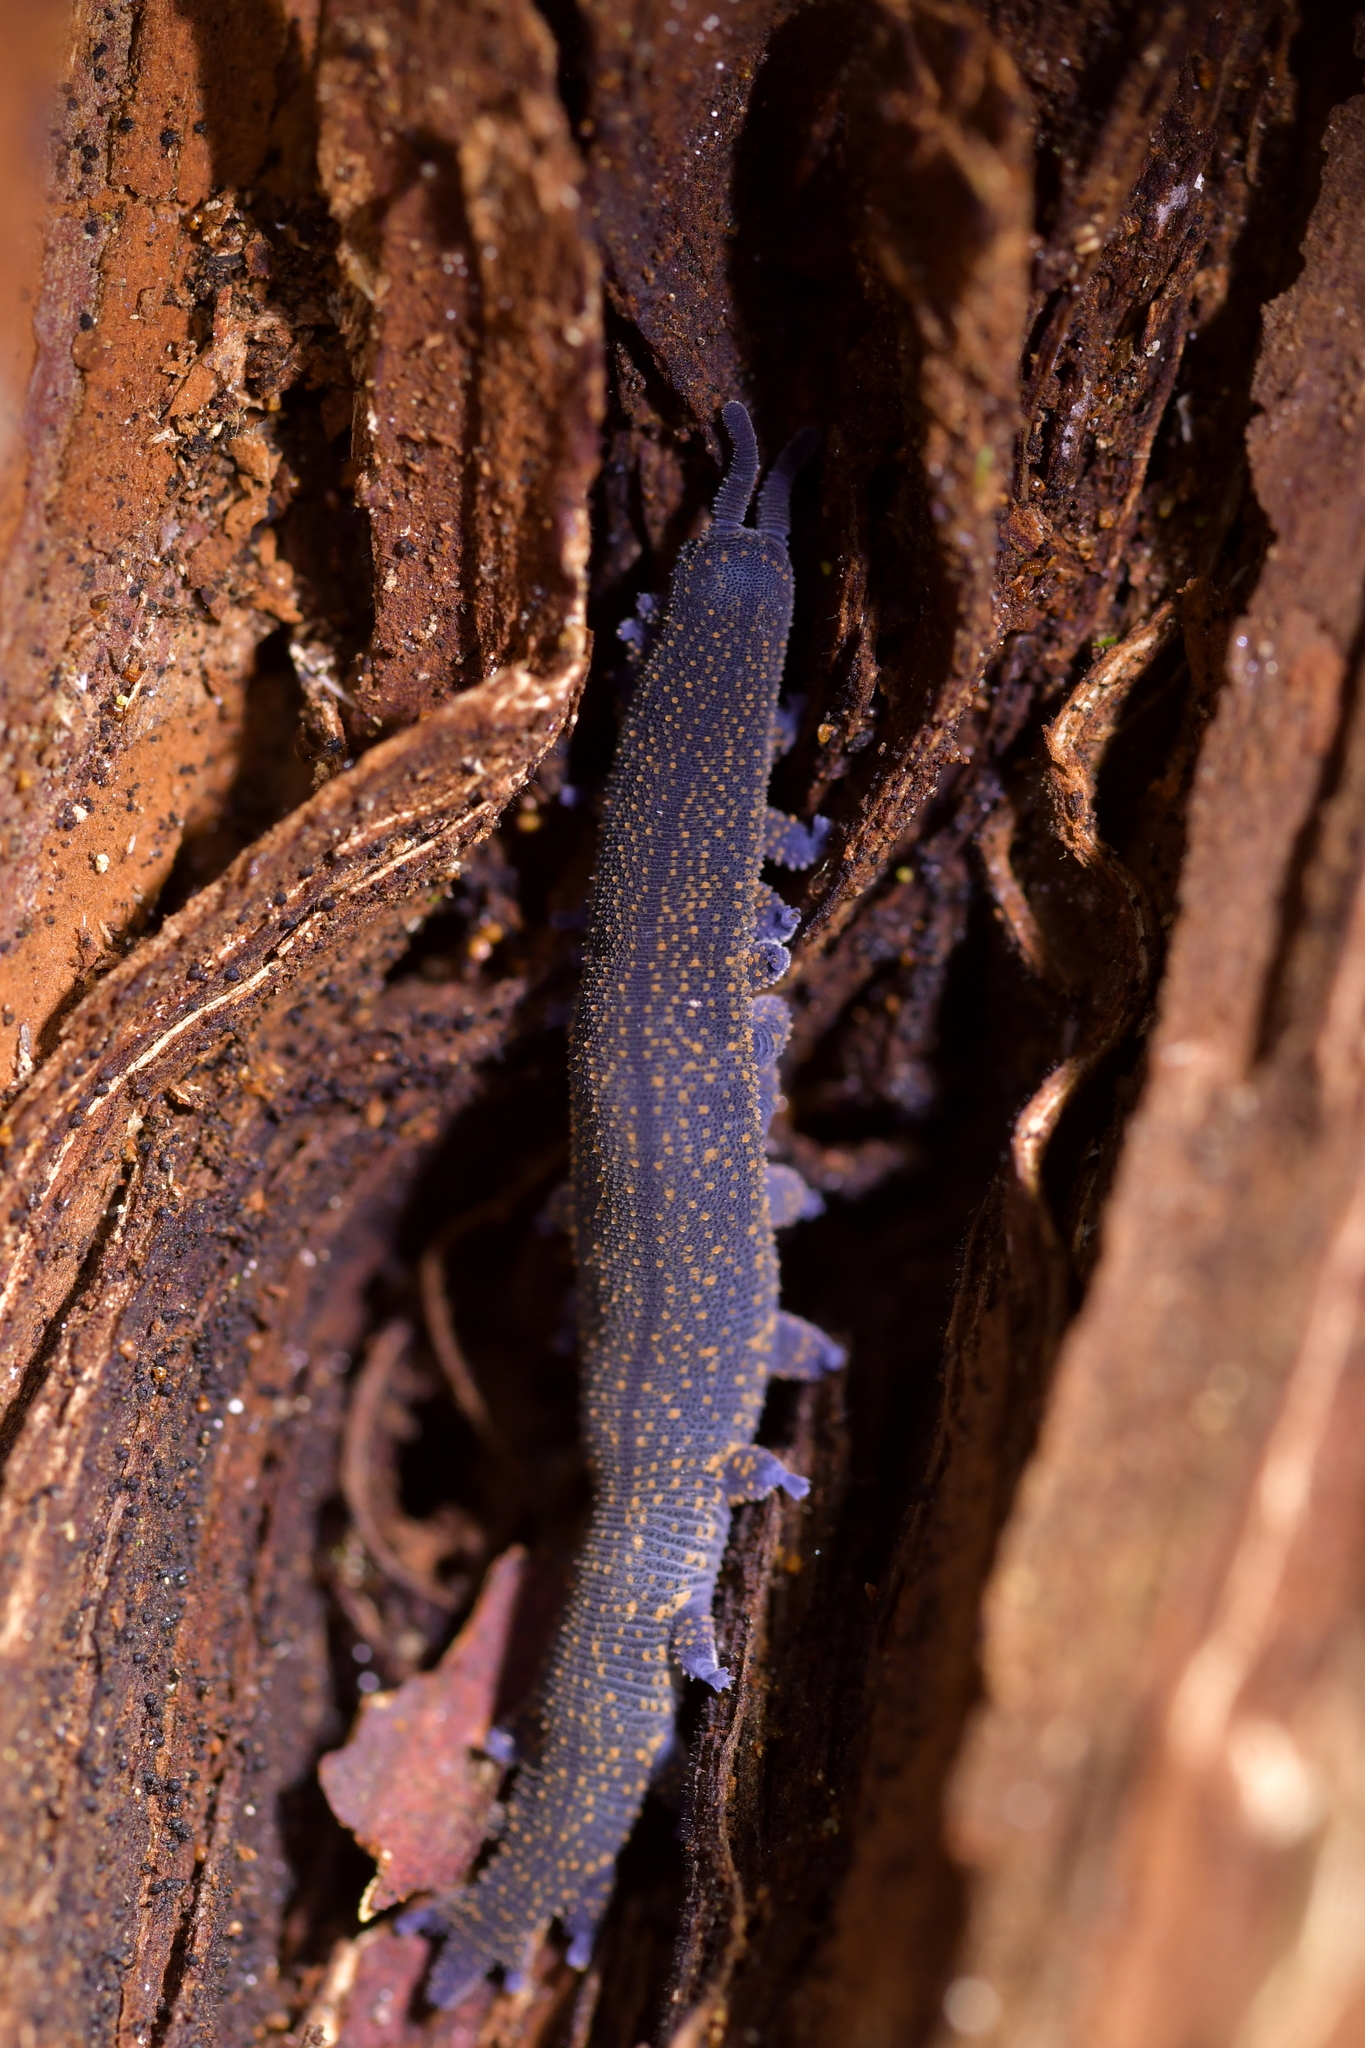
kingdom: Animalia
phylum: Onychophora
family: Peripatopsidae
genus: Peripatoides
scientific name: Peripatoides novaezealandiae
